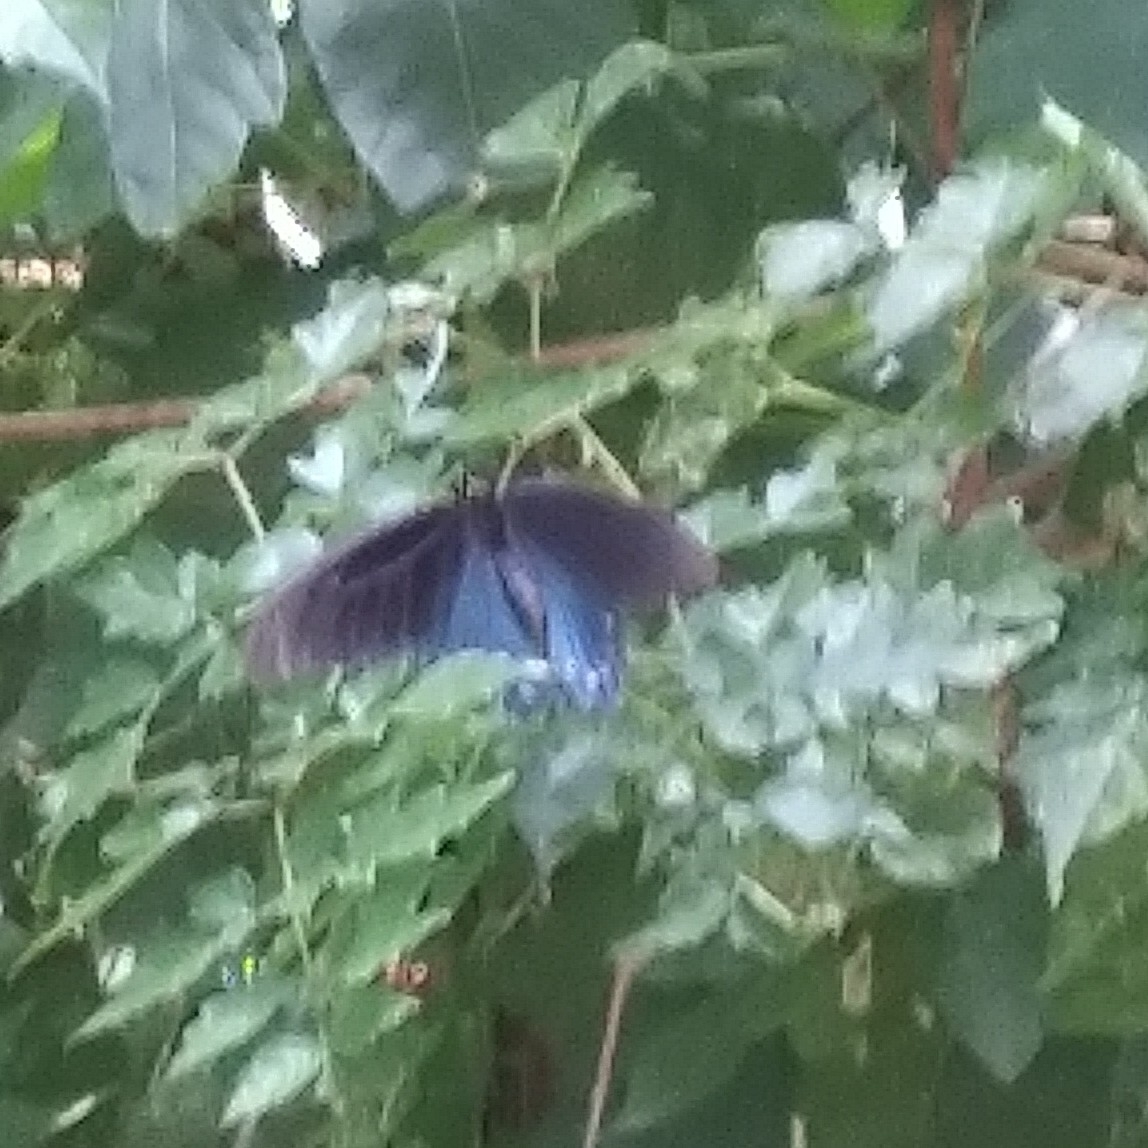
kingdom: Animalia
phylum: Arthropoda
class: Insecta
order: Lepidoptera
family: Papilionidae
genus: Battus
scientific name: Battus philenor
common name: Pipevine swallowtail
